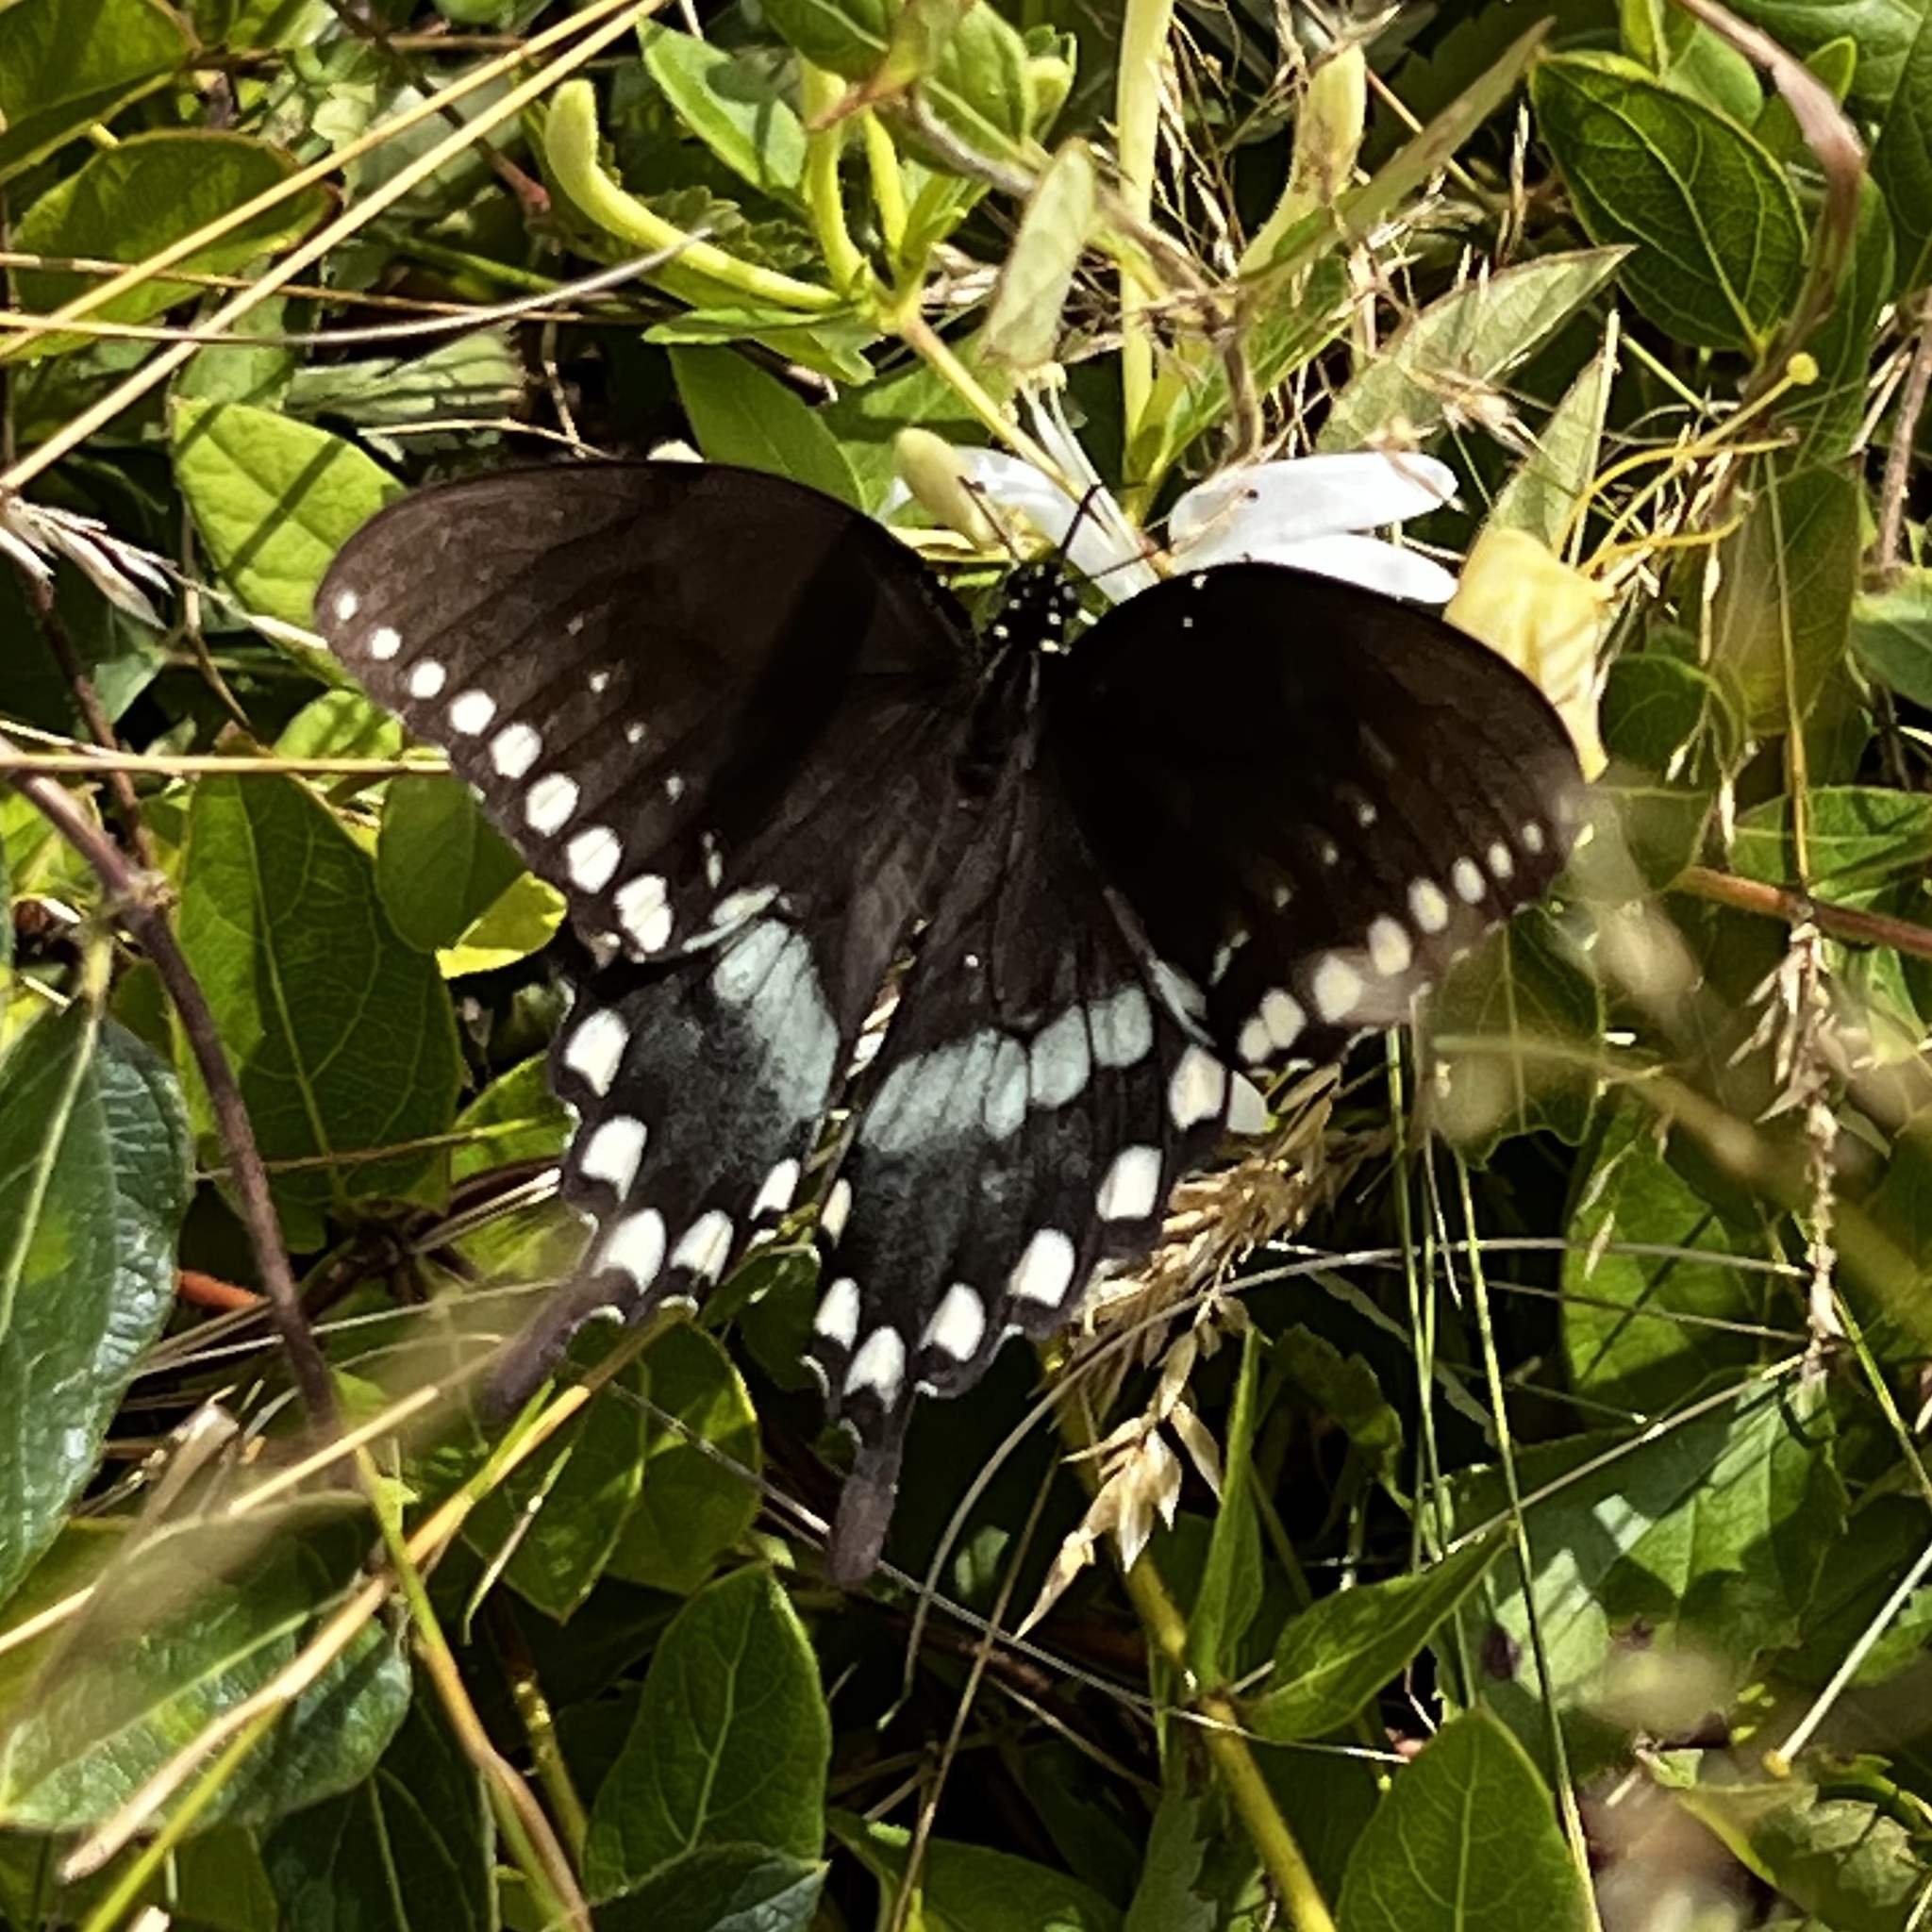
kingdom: Animalia
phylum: Arthropoda
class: Insecta
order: Lepidoptera
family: Papilionidae
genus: Papilio
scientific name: Papilio troilus
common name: Spicebush swallowtail
